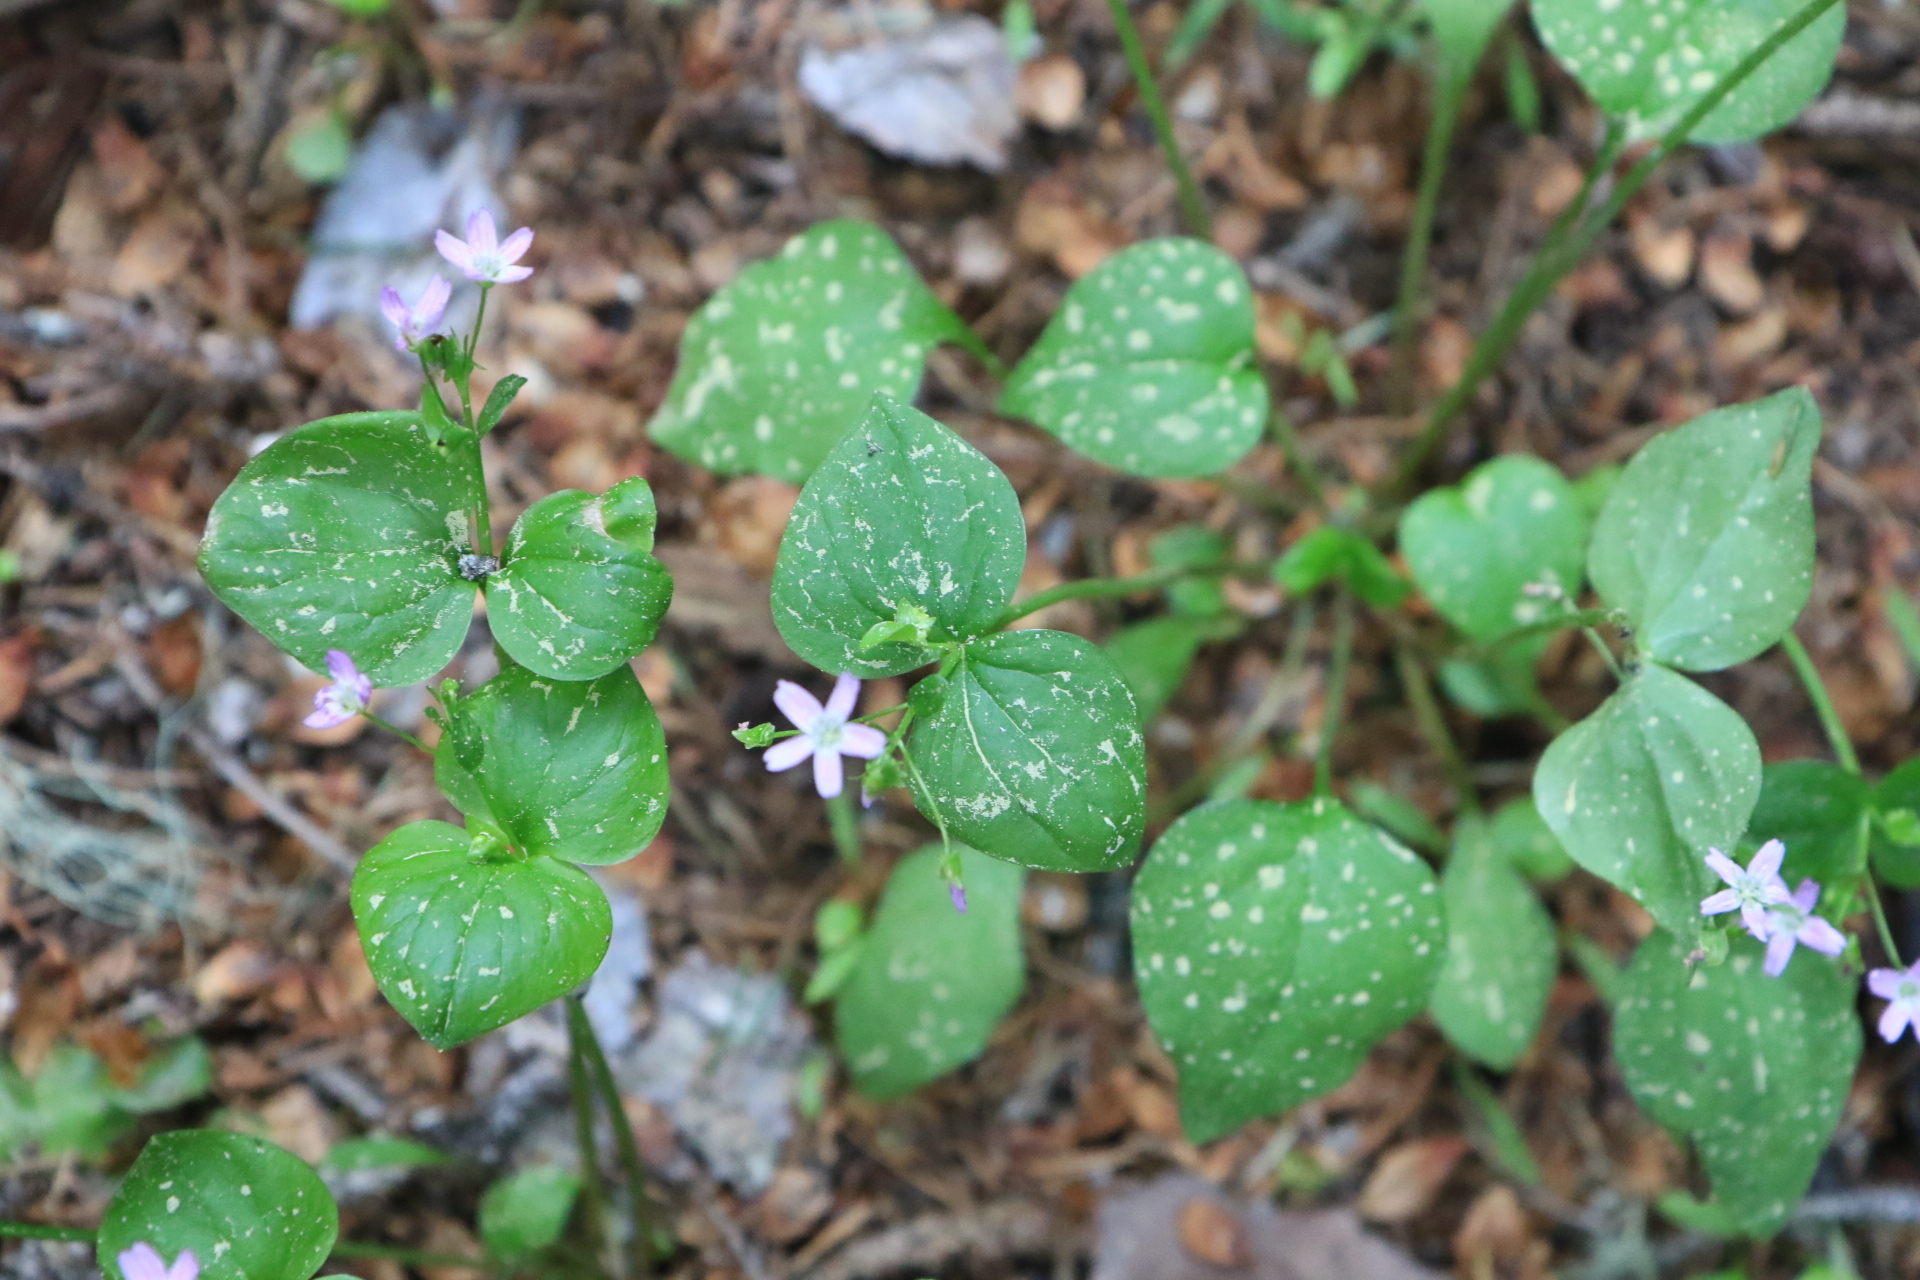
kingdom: Plantae
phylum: Tracheophyta
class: Magnoliopsida
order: Caryophyllales
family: Montiaceae
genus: Claytonia
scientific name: Claytonia sibirica
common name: Pink purslane
